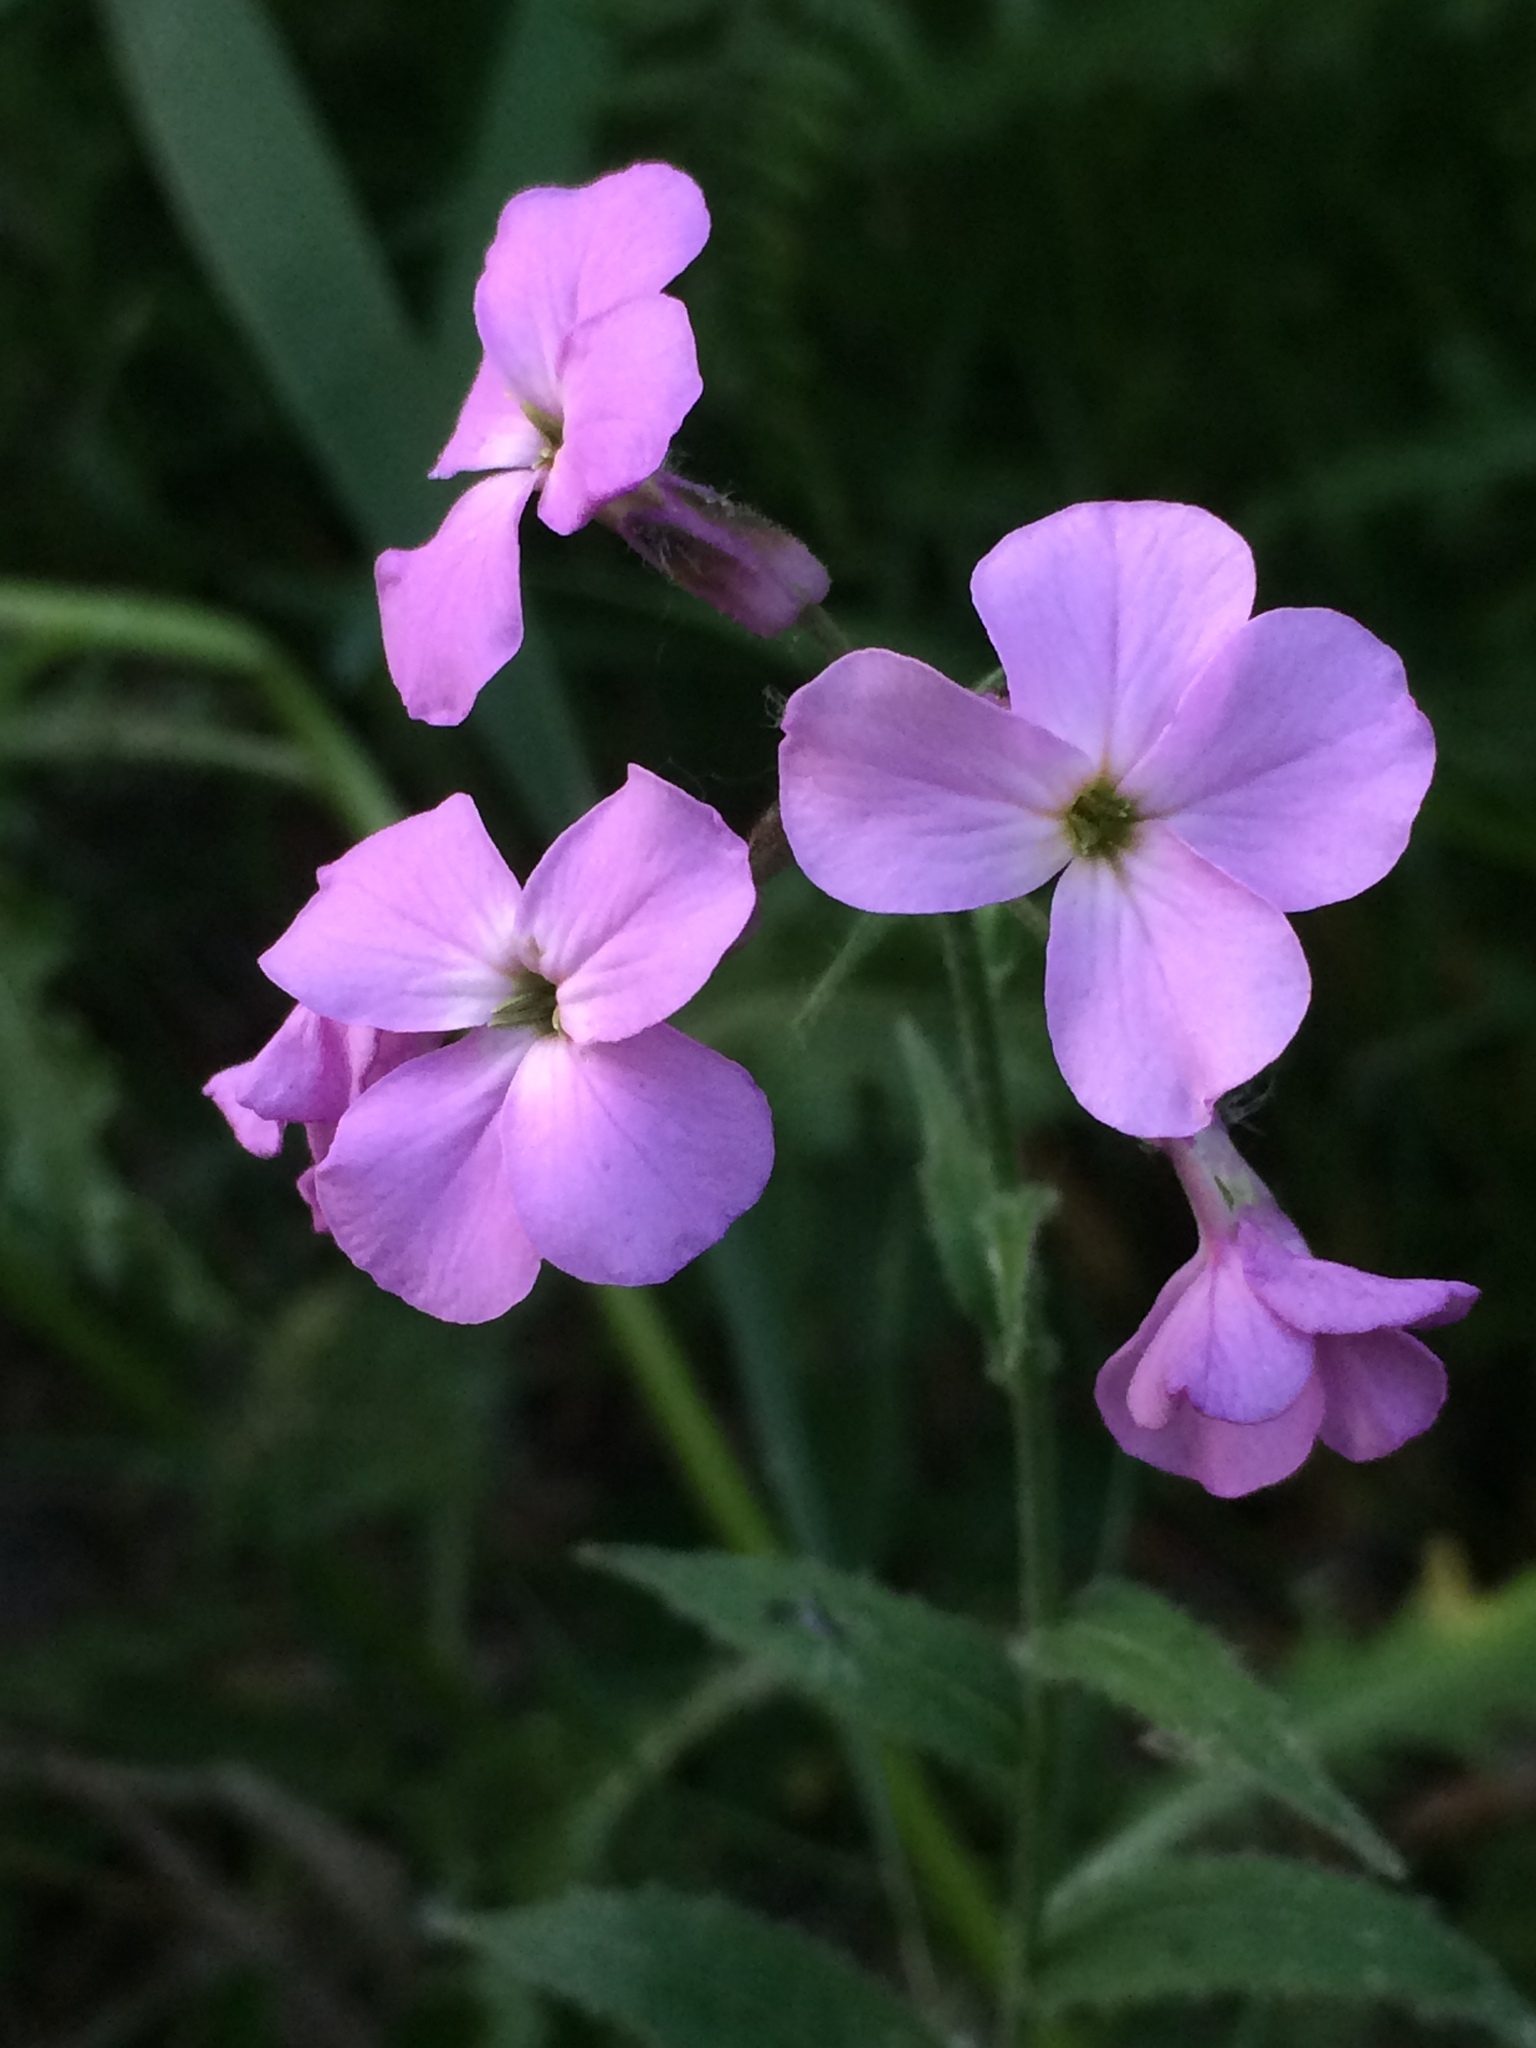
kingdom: Plantae
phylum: Tracheophyta
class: Magnoliopsida
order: Brassicales
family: Brassicaceae
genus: Hesperis
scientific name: Hesperis matronalis
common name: Dame's-violet
